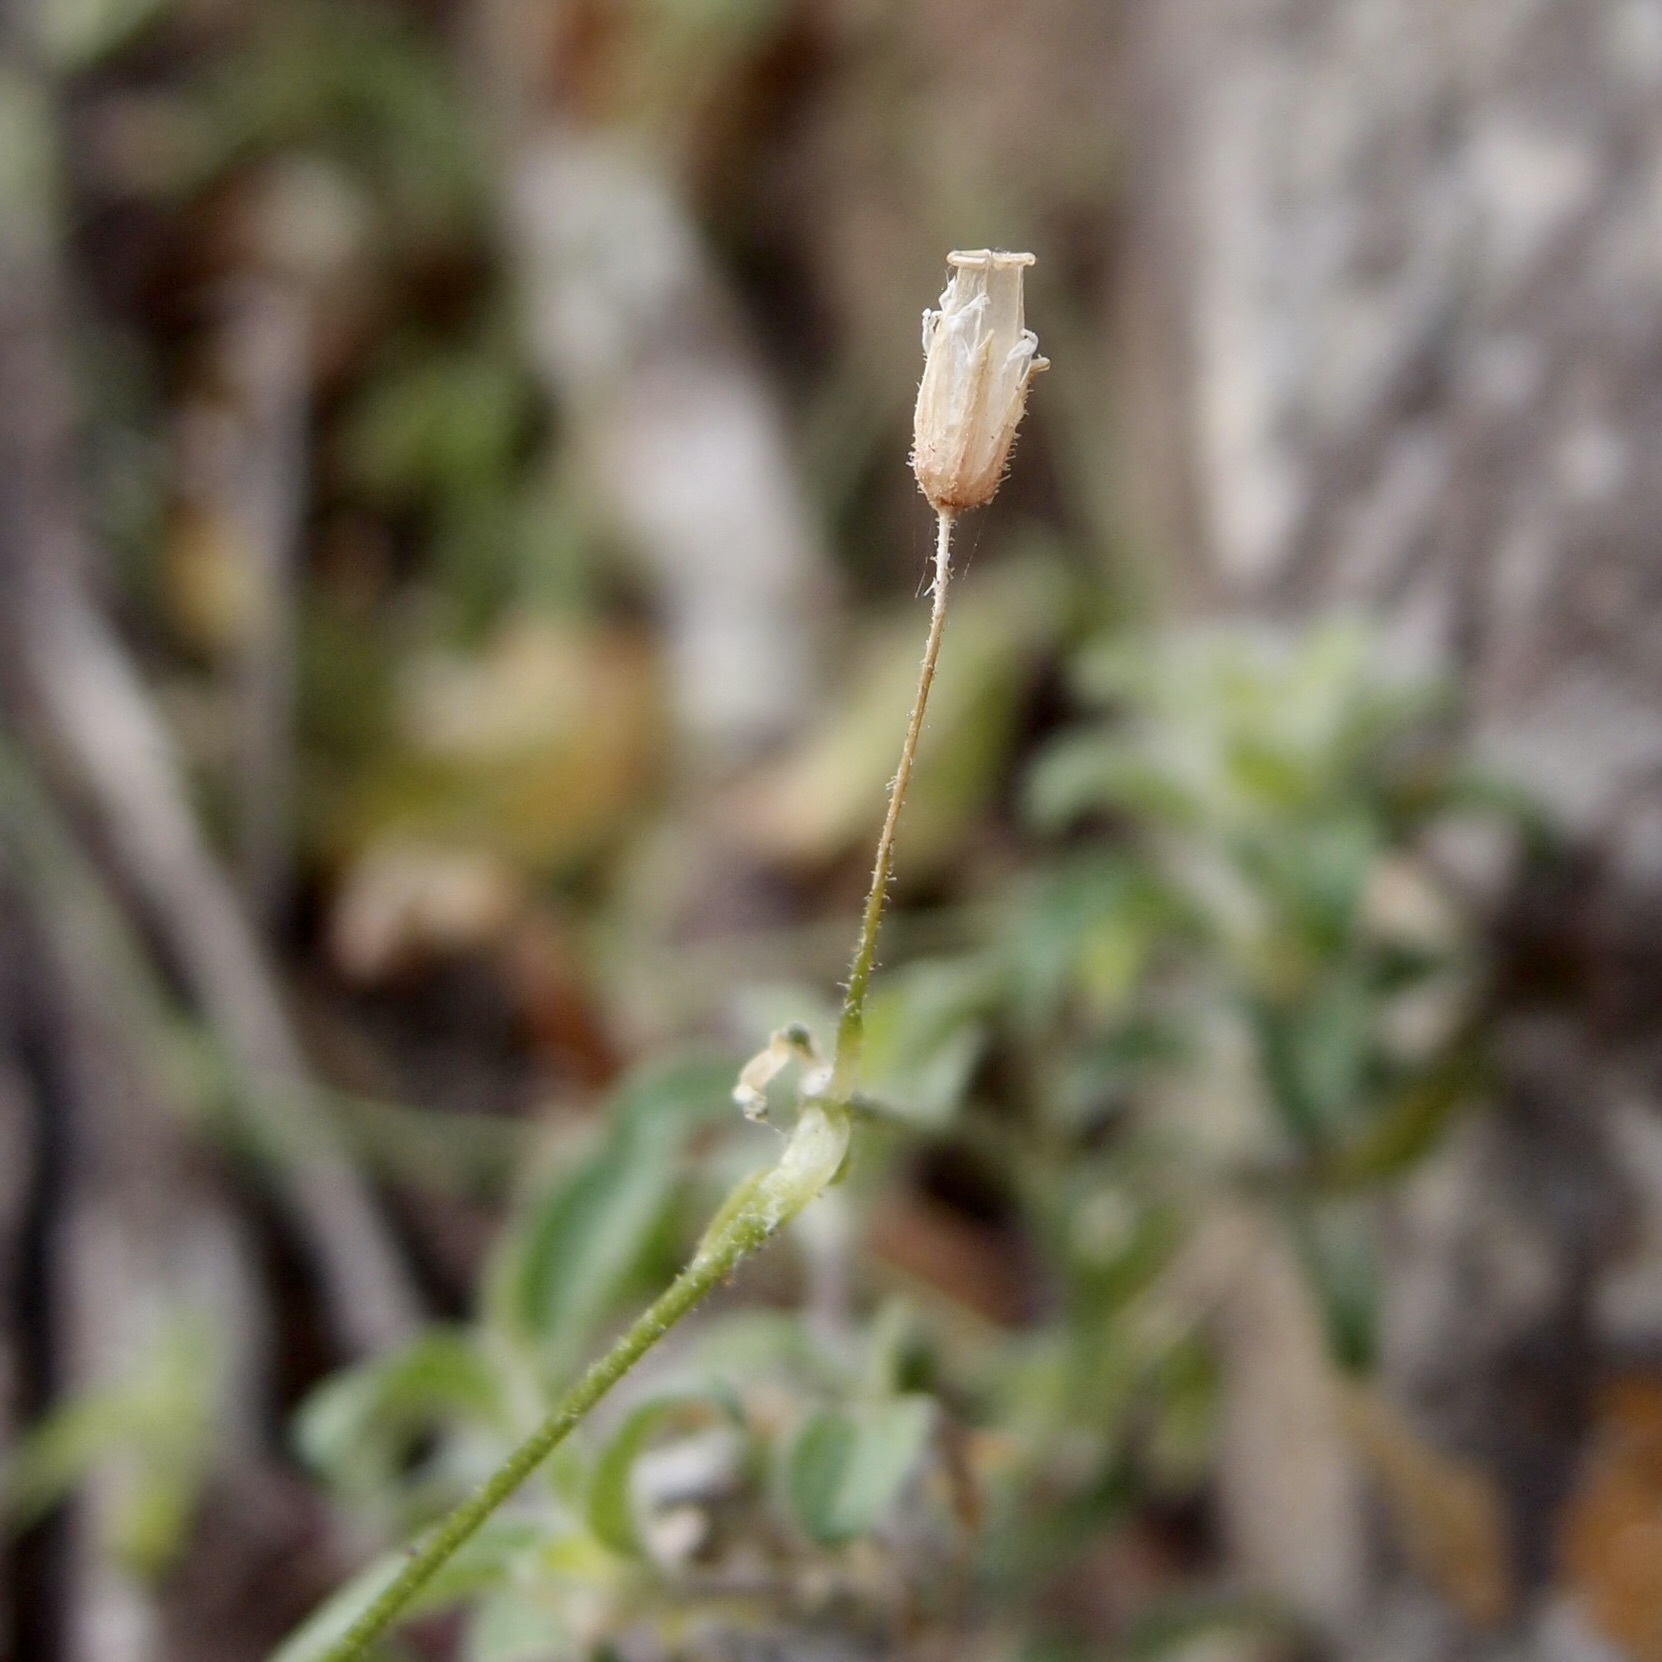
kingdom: Plantae
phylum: Tracheophyta
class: Magnoliopsida
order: Caryophyllales
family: Caryophyllaceae
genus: Cerastium
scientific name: Cerastium texanum
